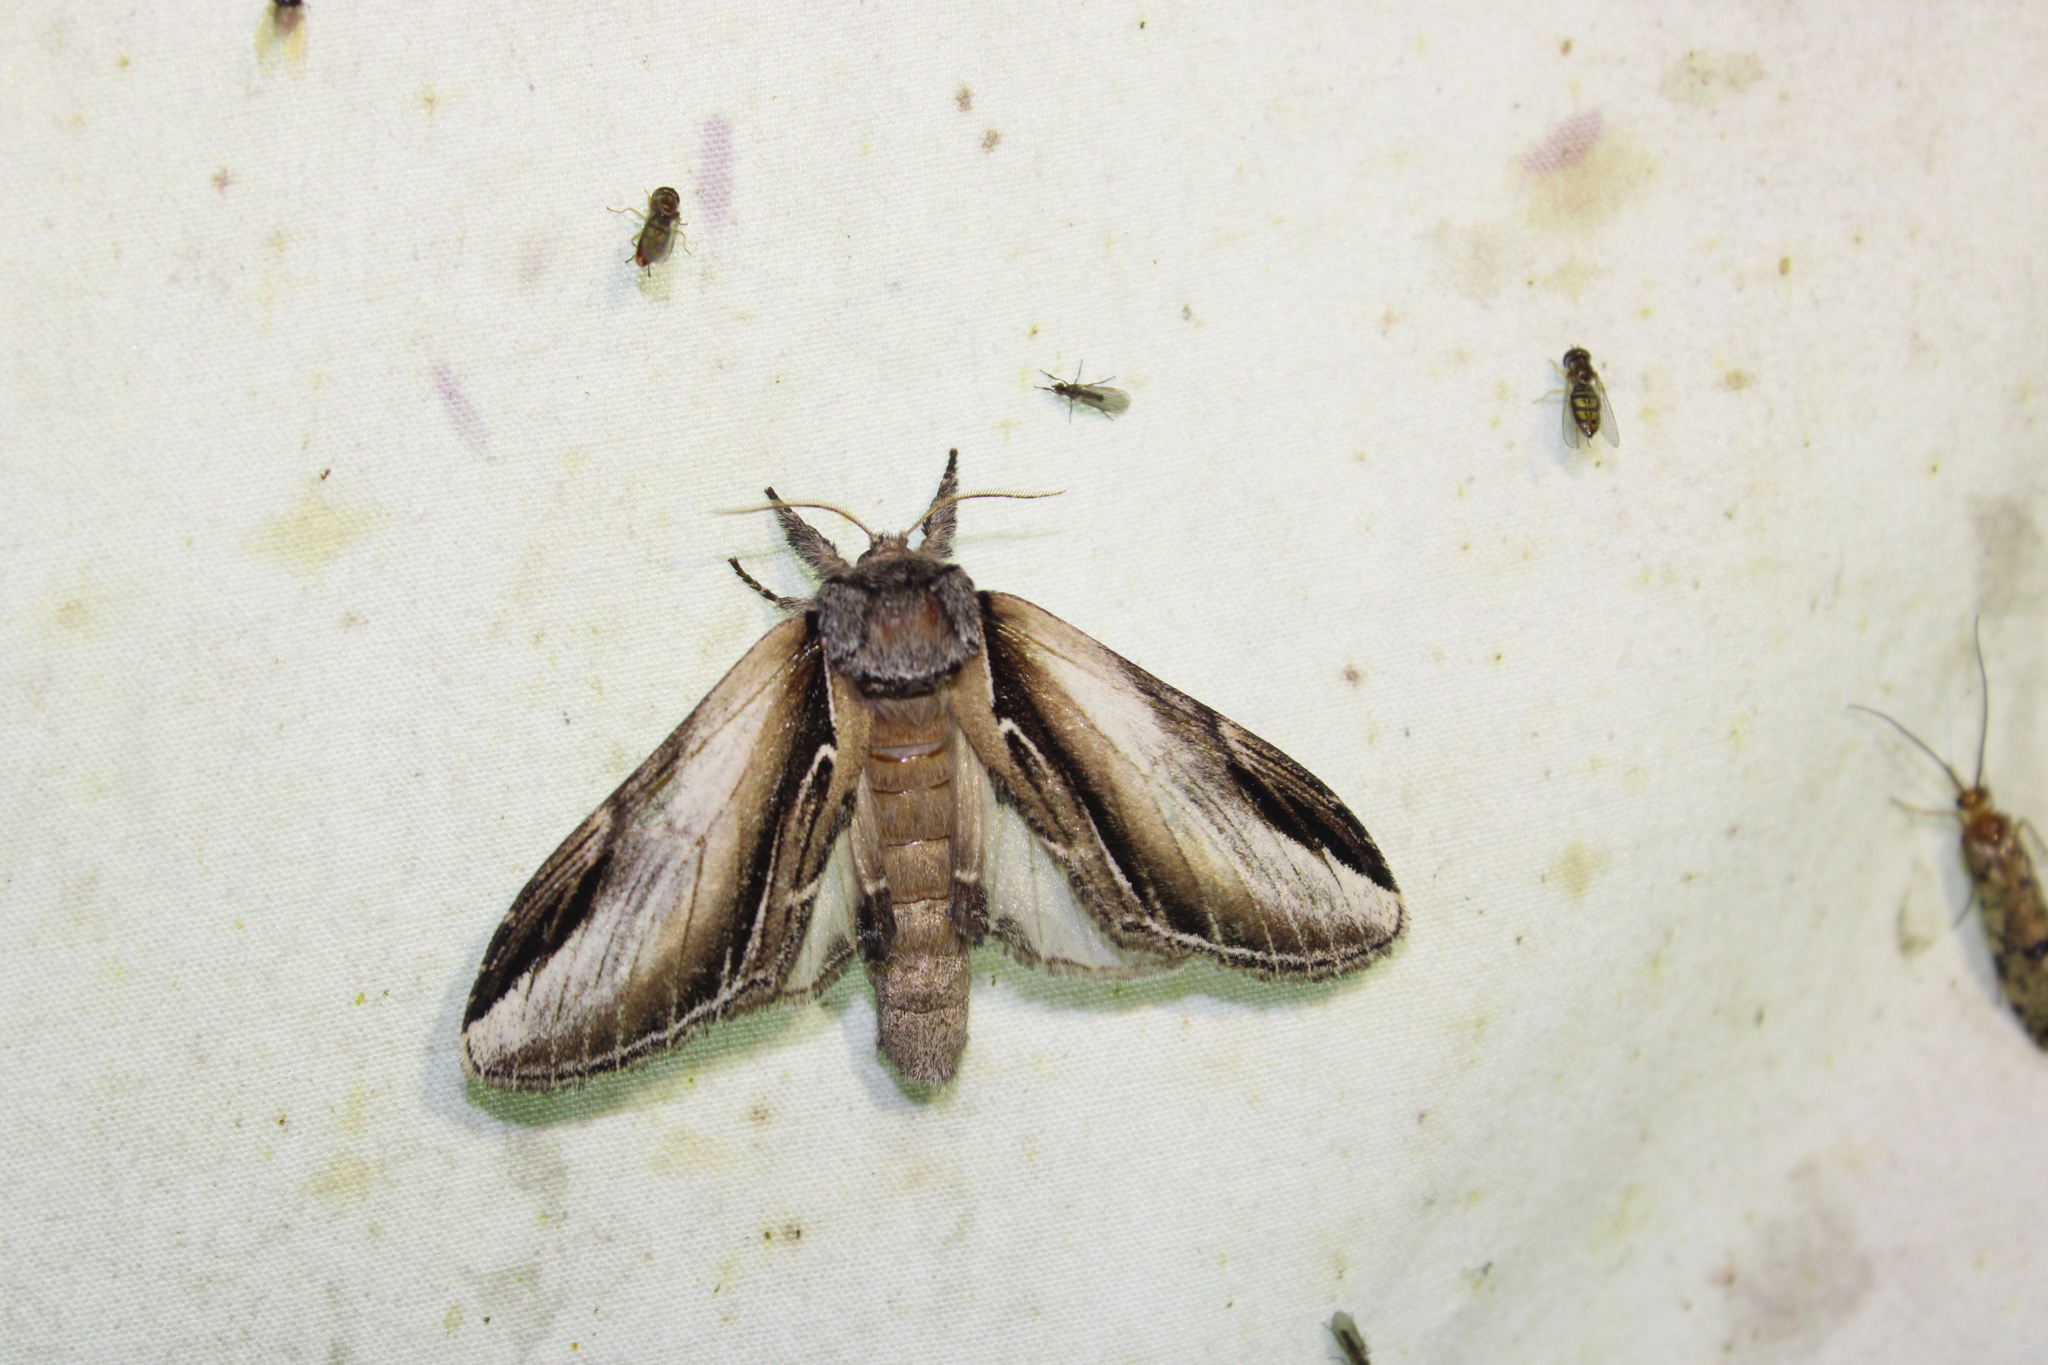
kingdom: Animalia
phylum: Arthropoda
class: Insecta
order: Lepidoptera
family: Notodontidae
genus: Pheosia
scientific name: Pheosia rimosa
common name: Black-rimmed prominent
